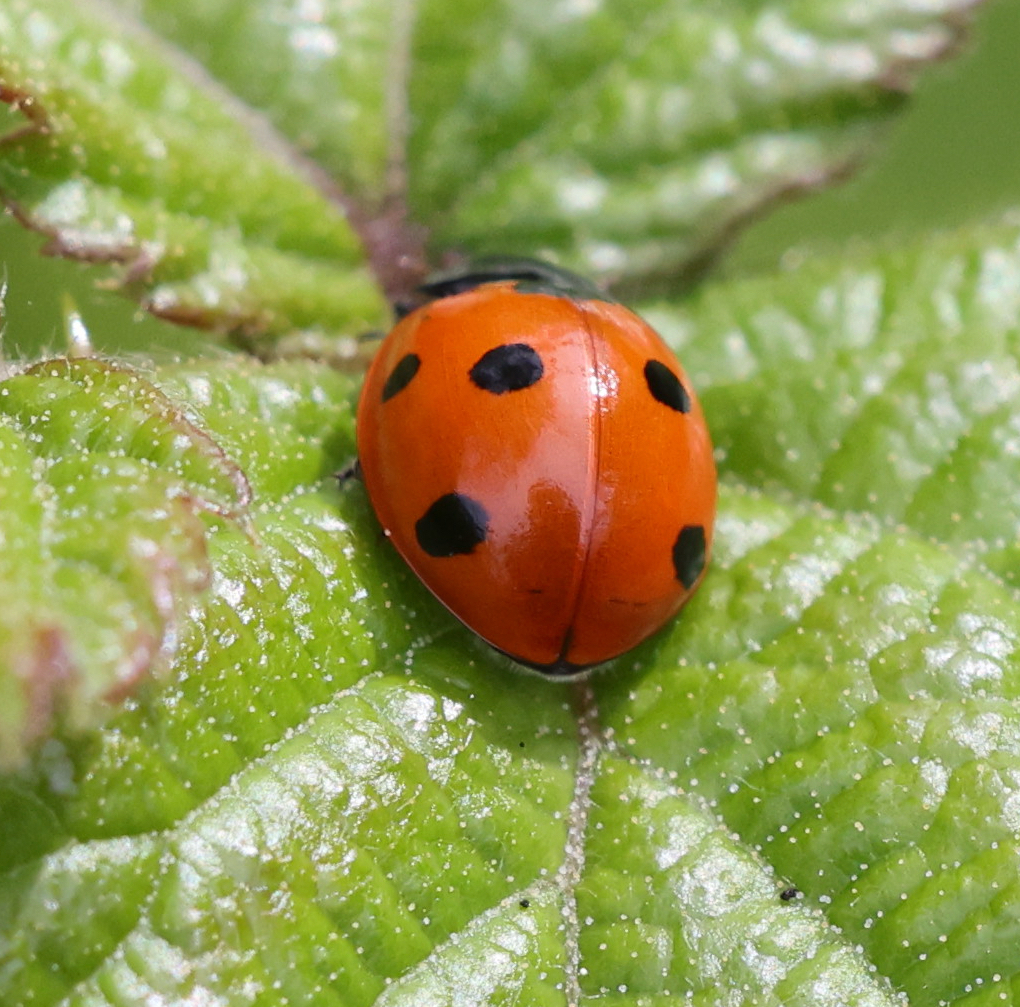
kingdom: Animalia
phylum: Arthropoda
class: Insecta
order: Coleoptera
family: Coccinellidae
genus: Coccinella
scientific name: Coccinella septempunctata
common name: Sevenspotted lady beetle
